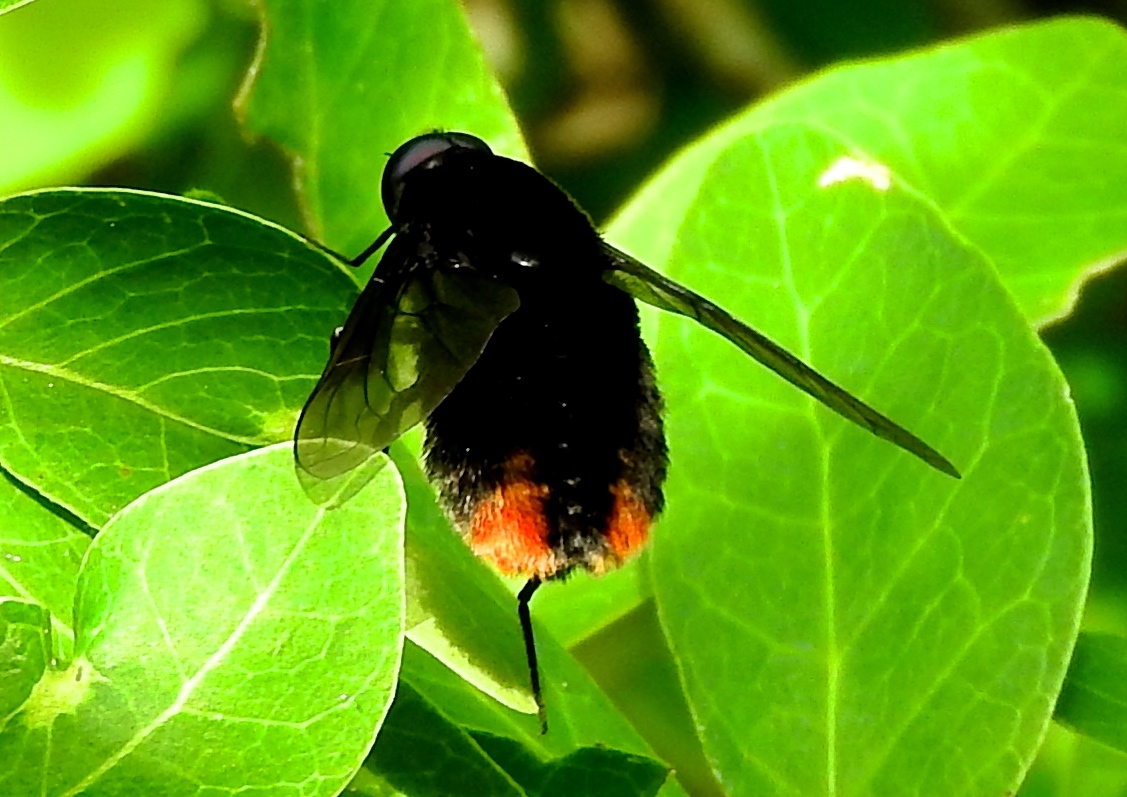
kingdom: Animalia
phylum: Arthropoda
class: Insecta
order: Diptera
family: Bombyliidae
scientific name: Bombyliidae
